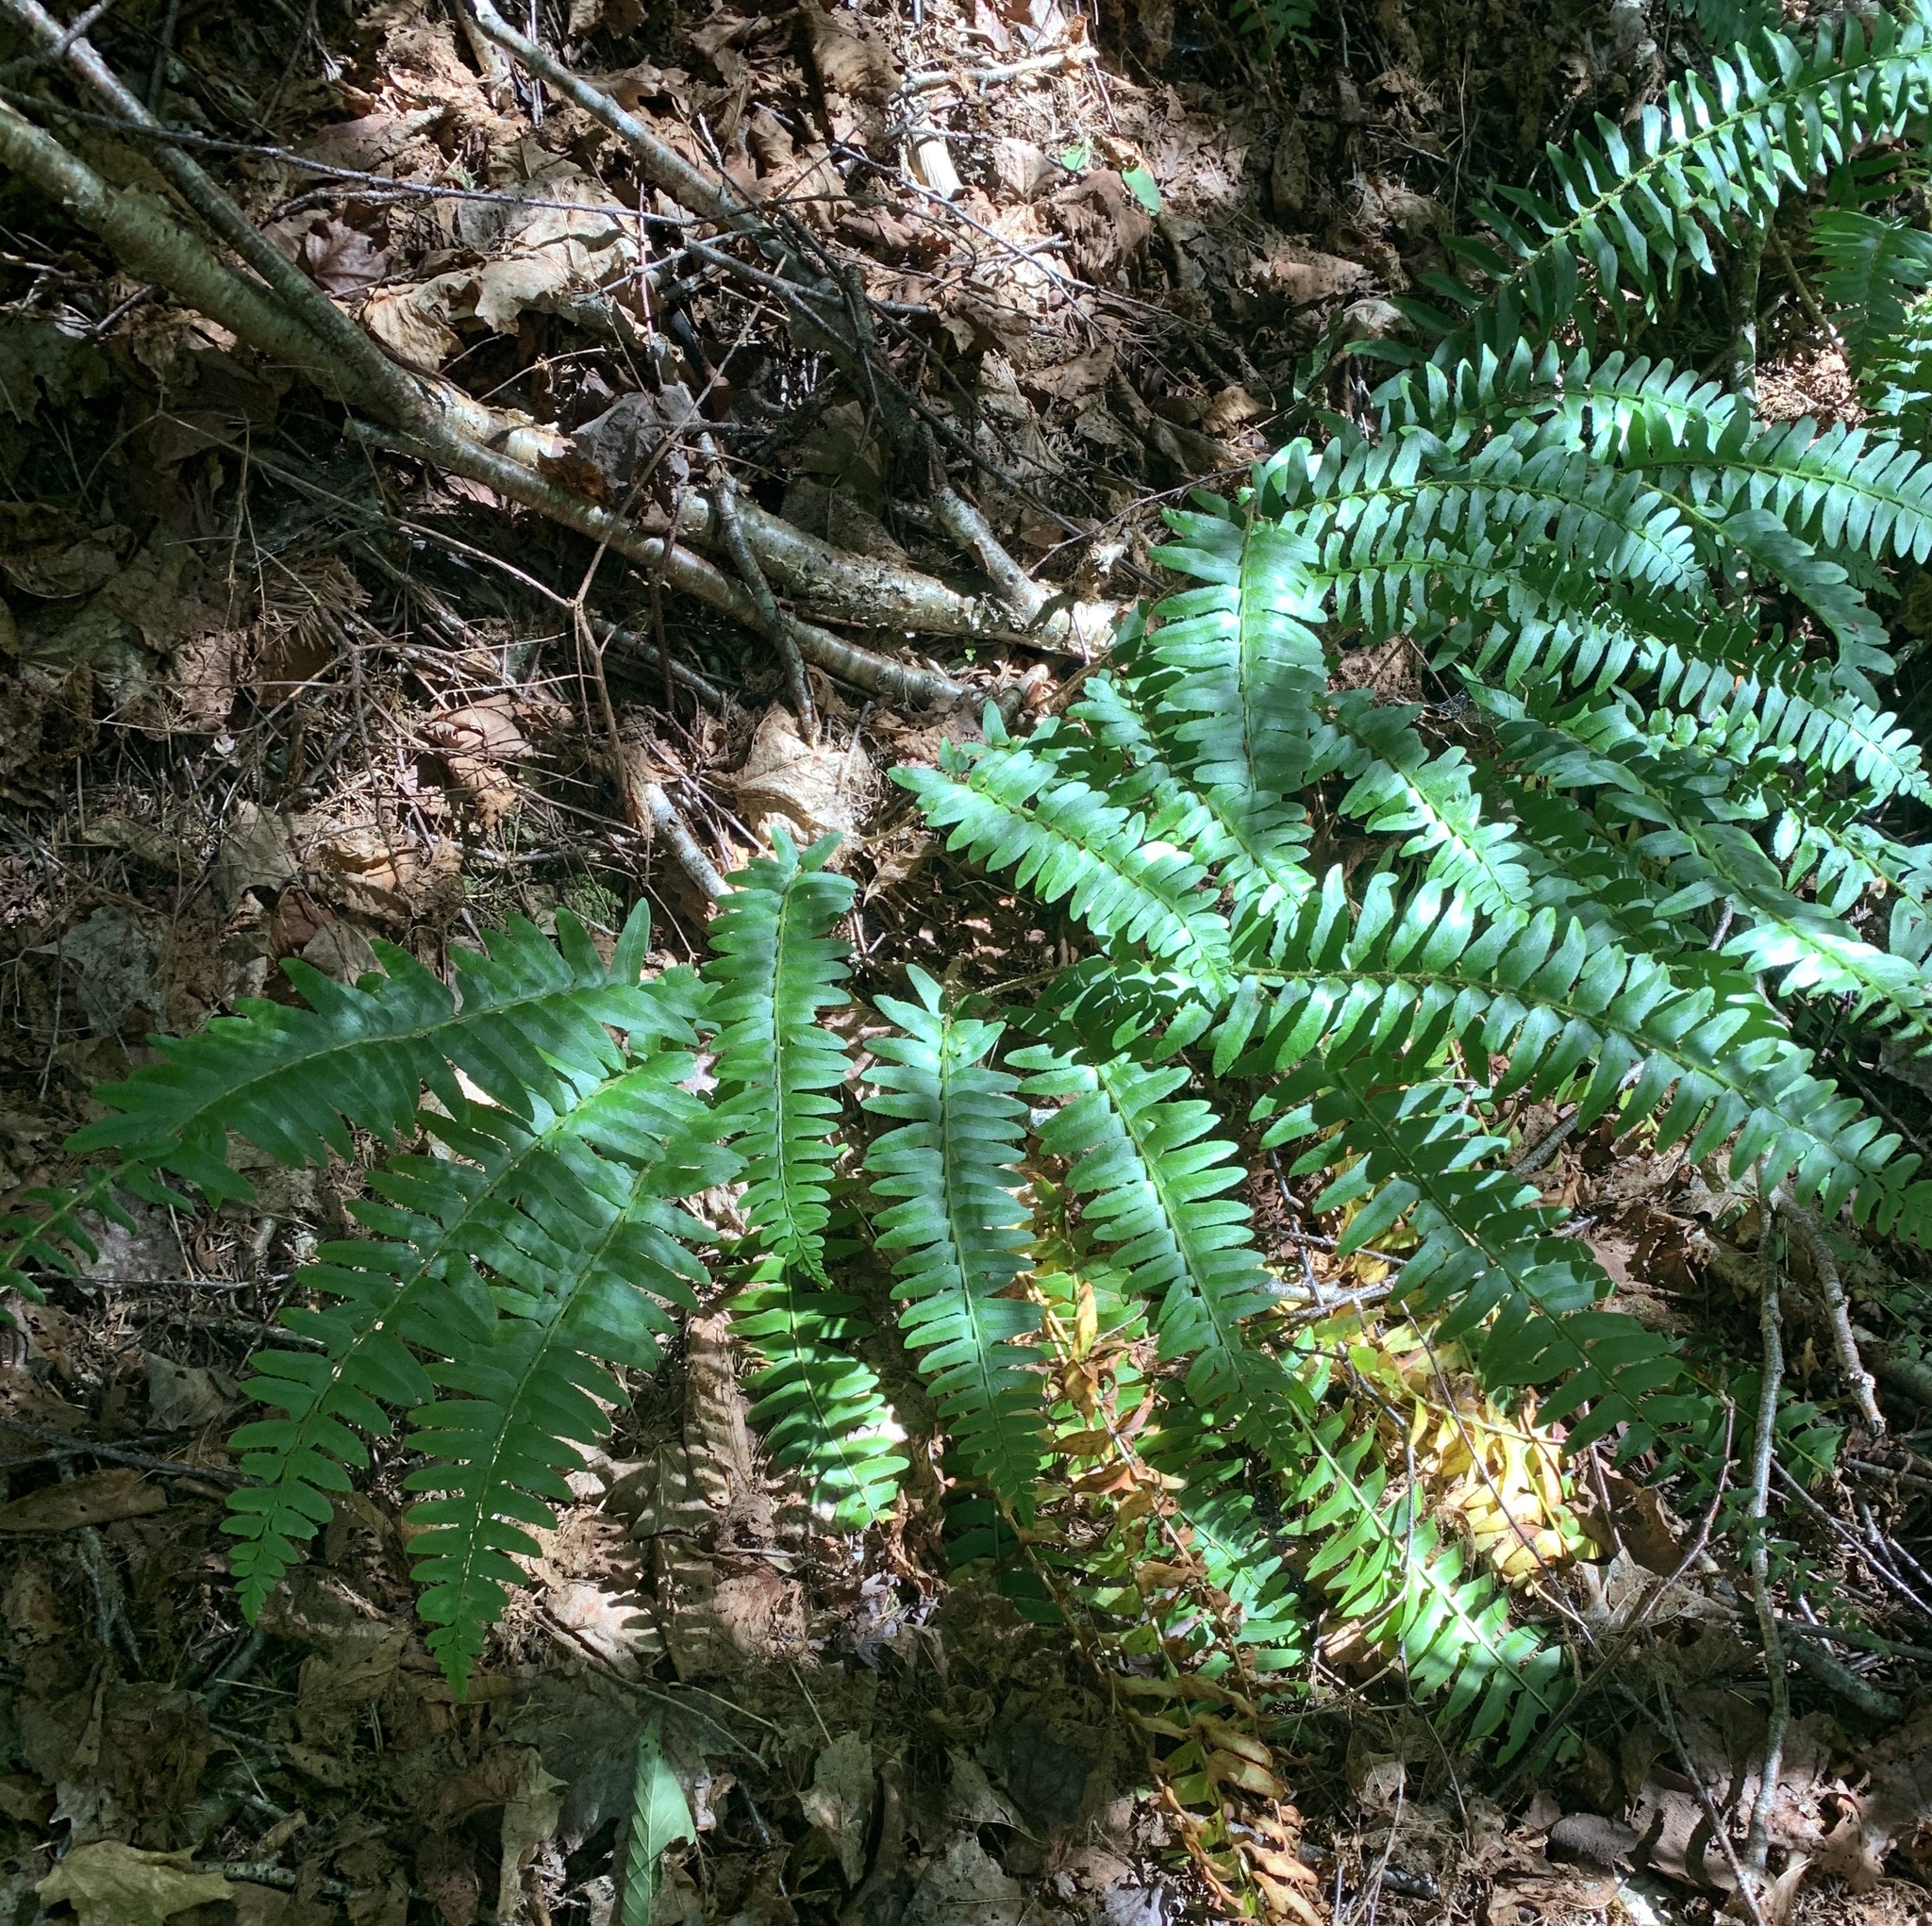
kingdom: Plantae
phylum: Tracheophyta
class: Polypodiopsida
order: Polypodiales
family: Dryopteridaceae
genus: Polystichum
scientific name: Polystichum acrostichoides
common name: Christmas fern
